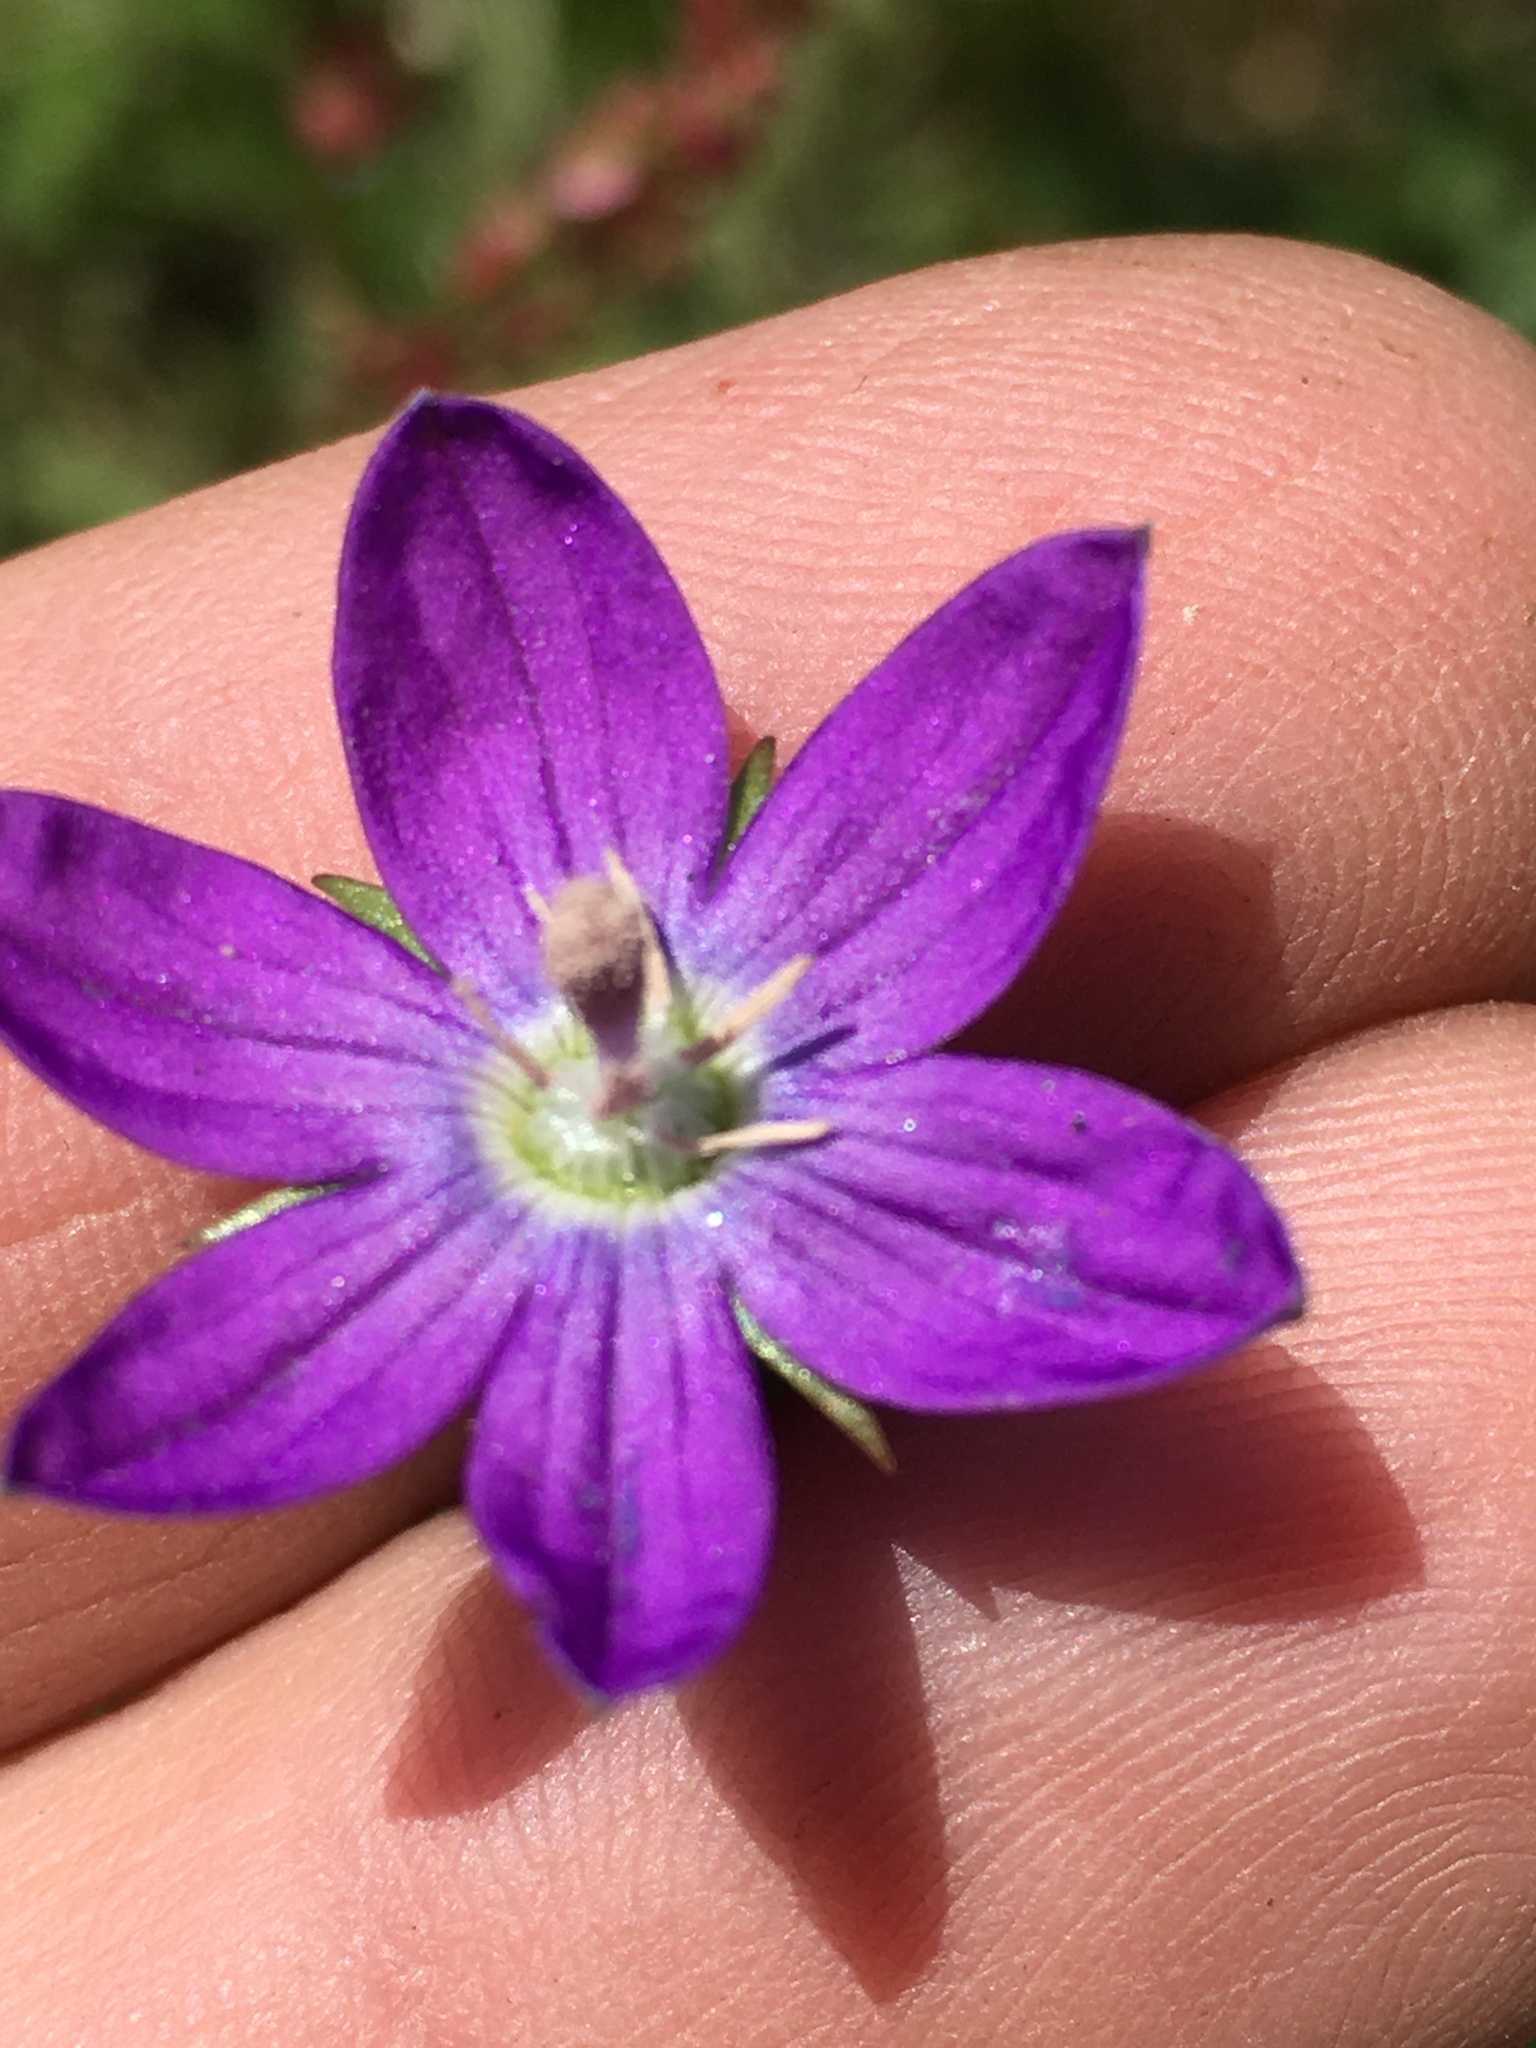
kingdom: Plantae
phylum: Tracheophyta
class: Magnoliopsida
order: Asterales
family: Campanulaceae
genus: Triodanis
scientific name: Triodanis biflora
